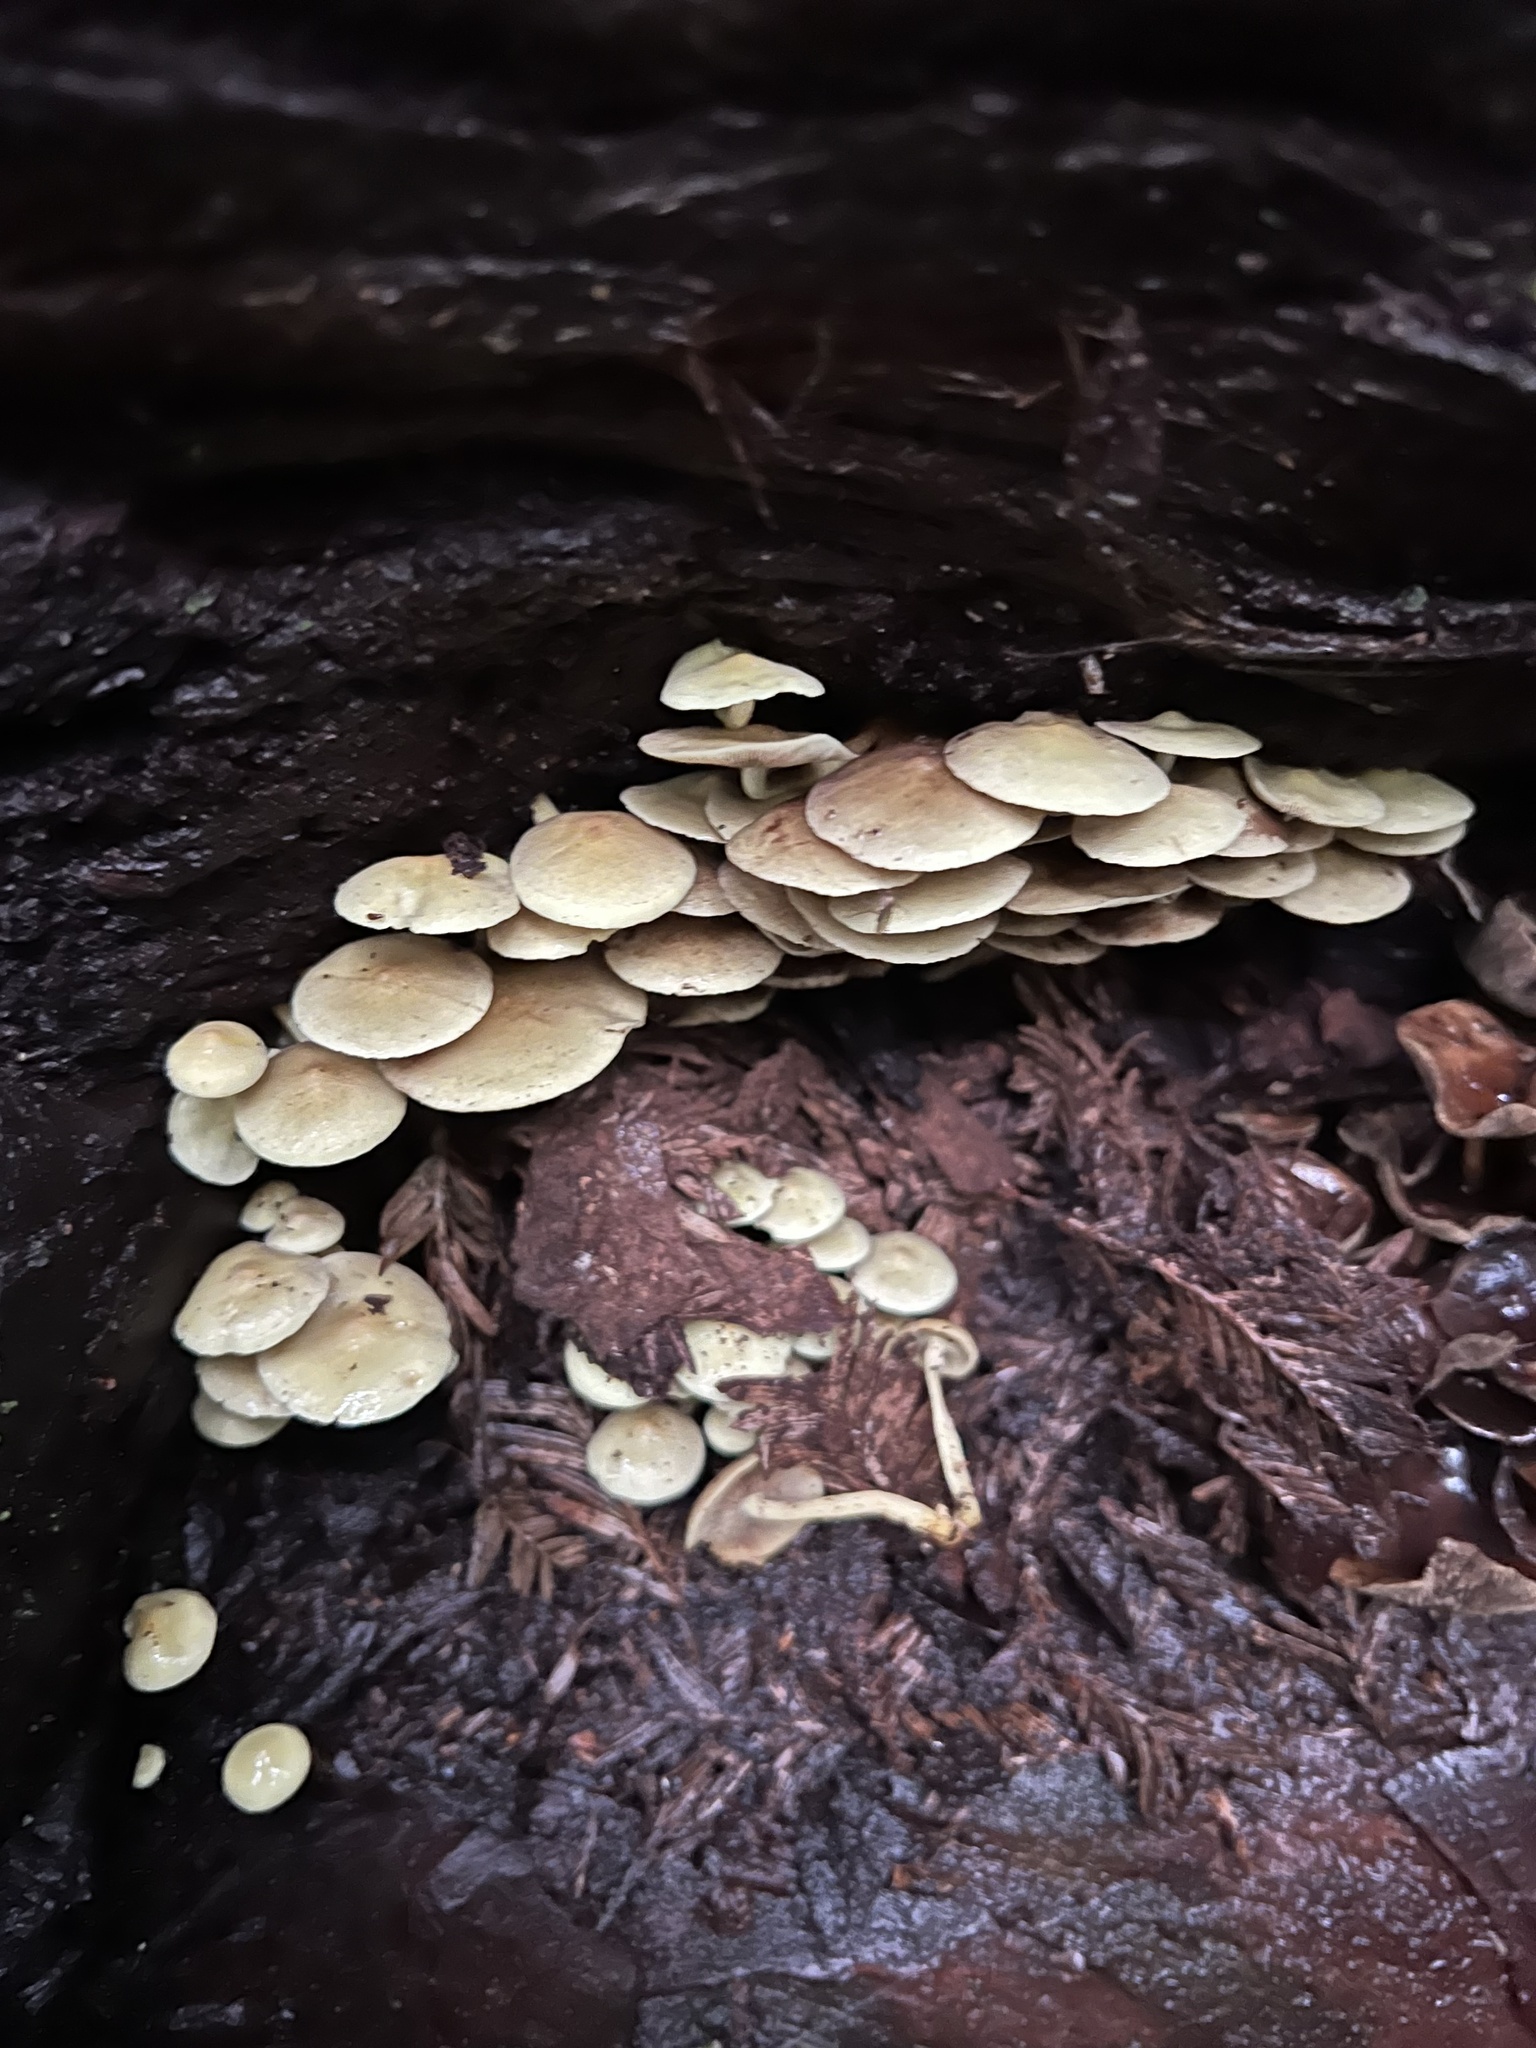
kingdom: Fungi
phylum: Basidiomycota
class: Agaricomycetes
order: Agaricales
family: Strophariaceae
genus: Hypholoma
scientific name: Hypholoma acutum
